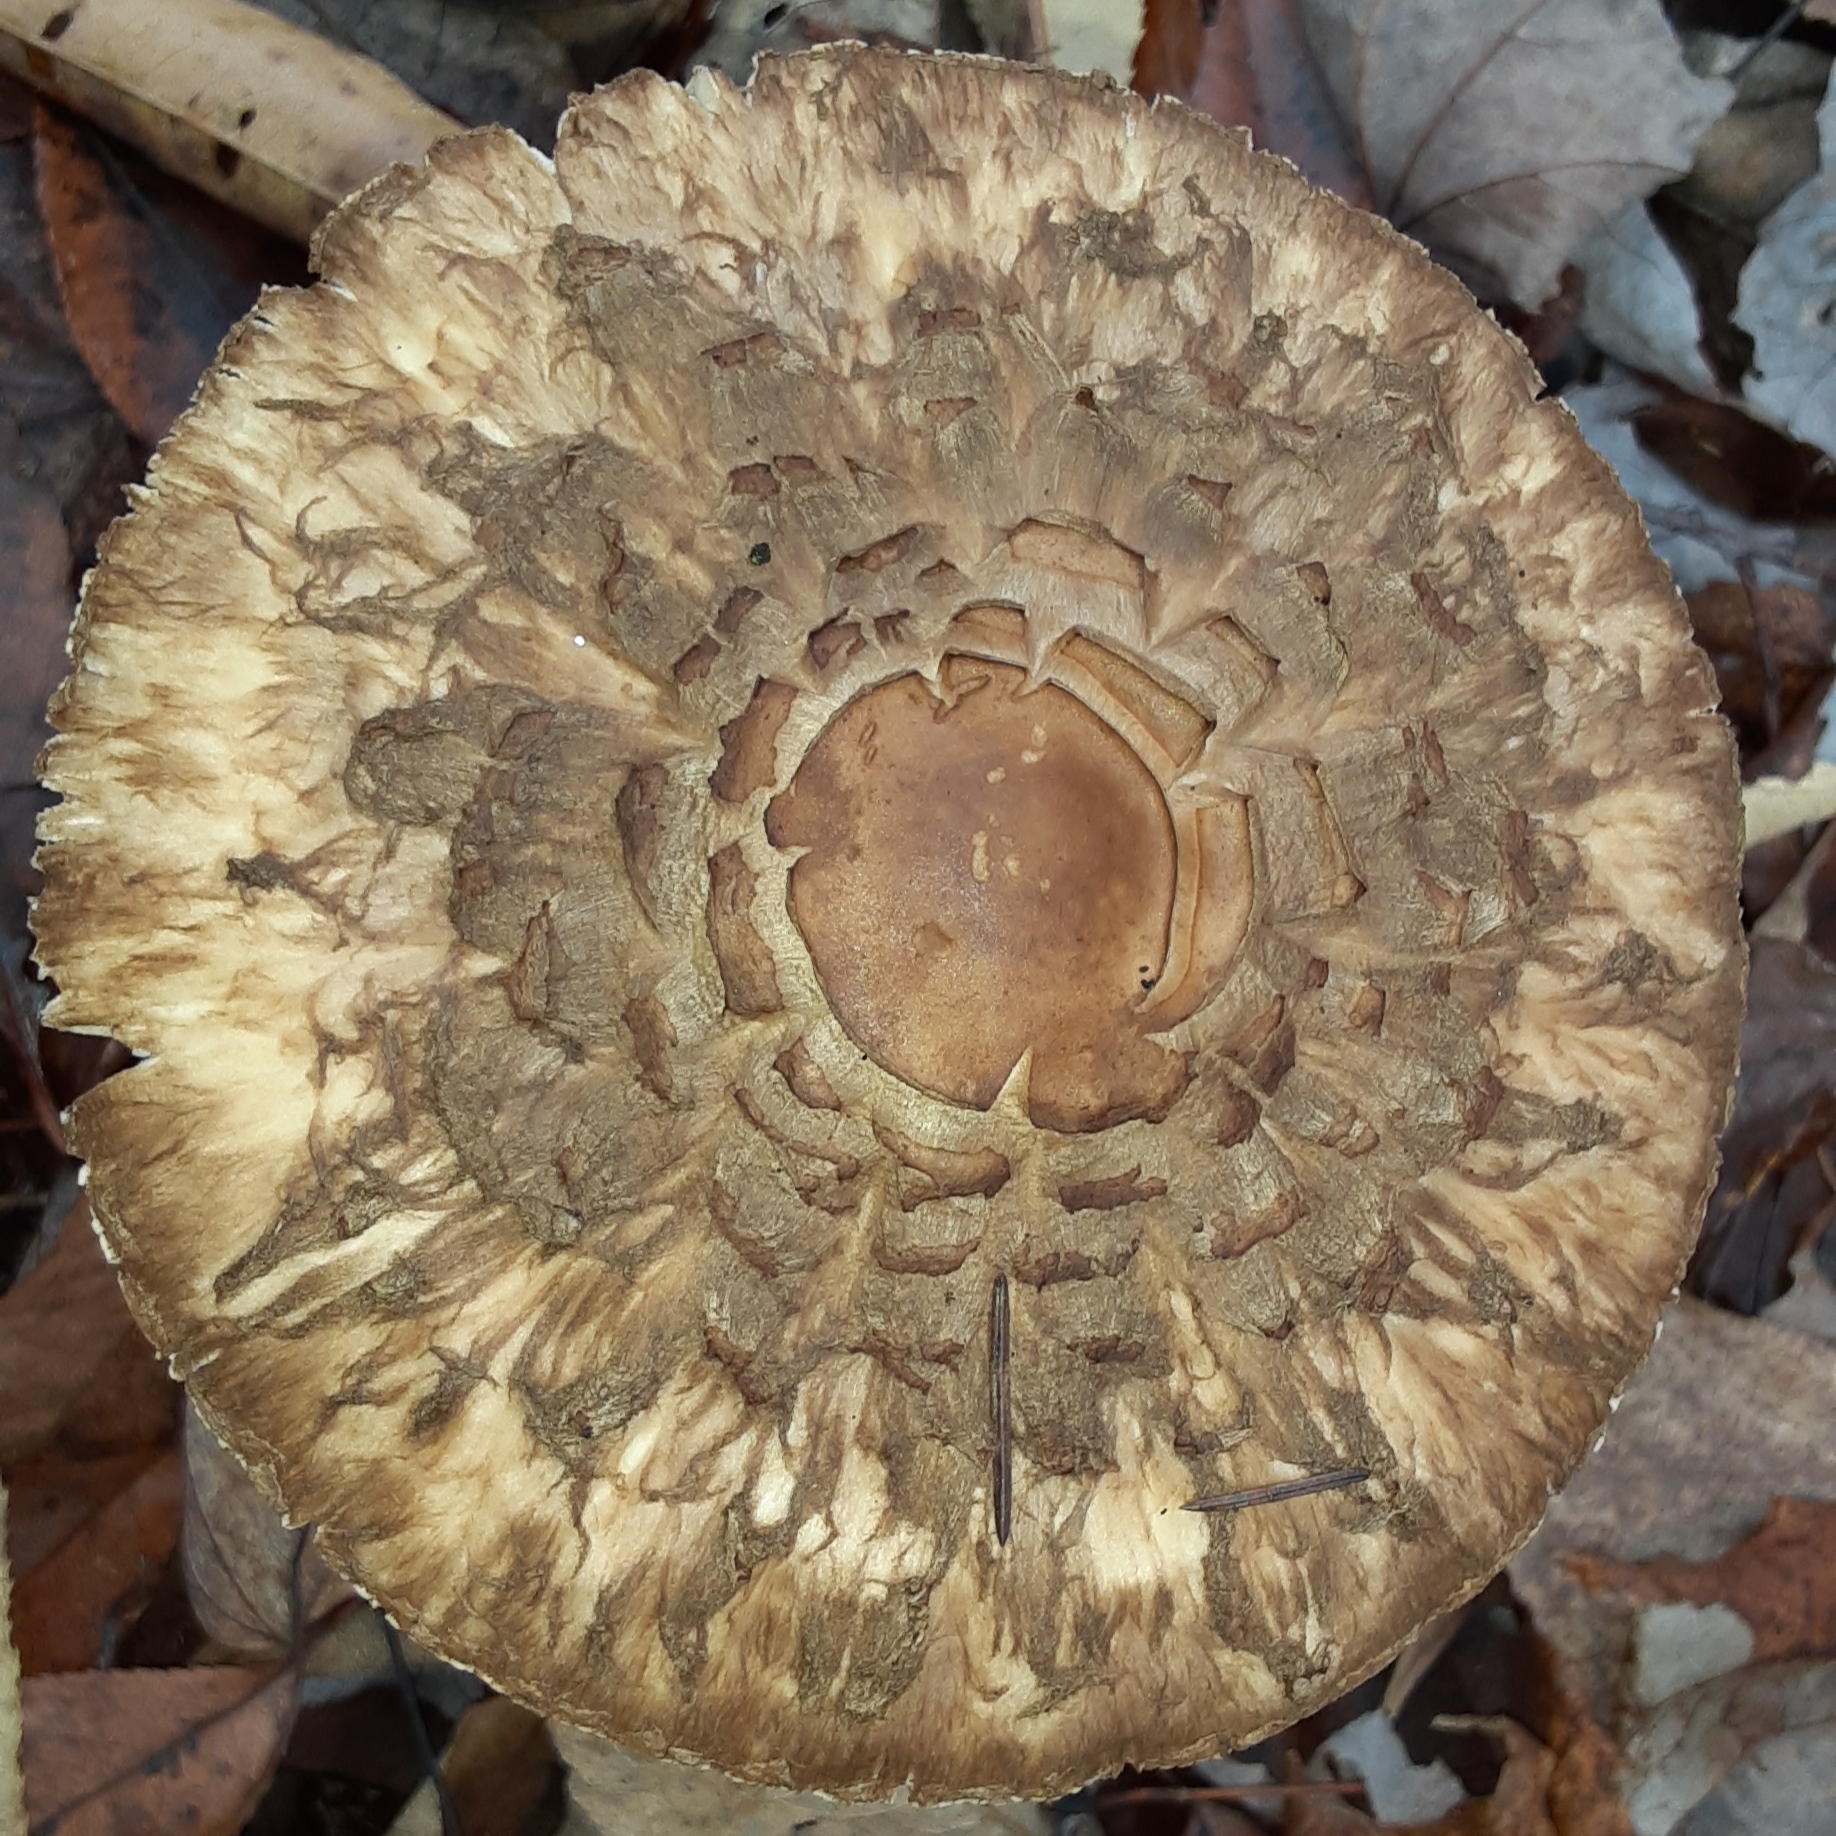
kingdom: Fungi
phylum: Basidiomycota
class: Agaricomycetes
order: Agaricales
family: Agaricaceae
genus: Chlorophyllum
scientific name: Chlorophyllum rhacodes
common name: Shaggy parasol
